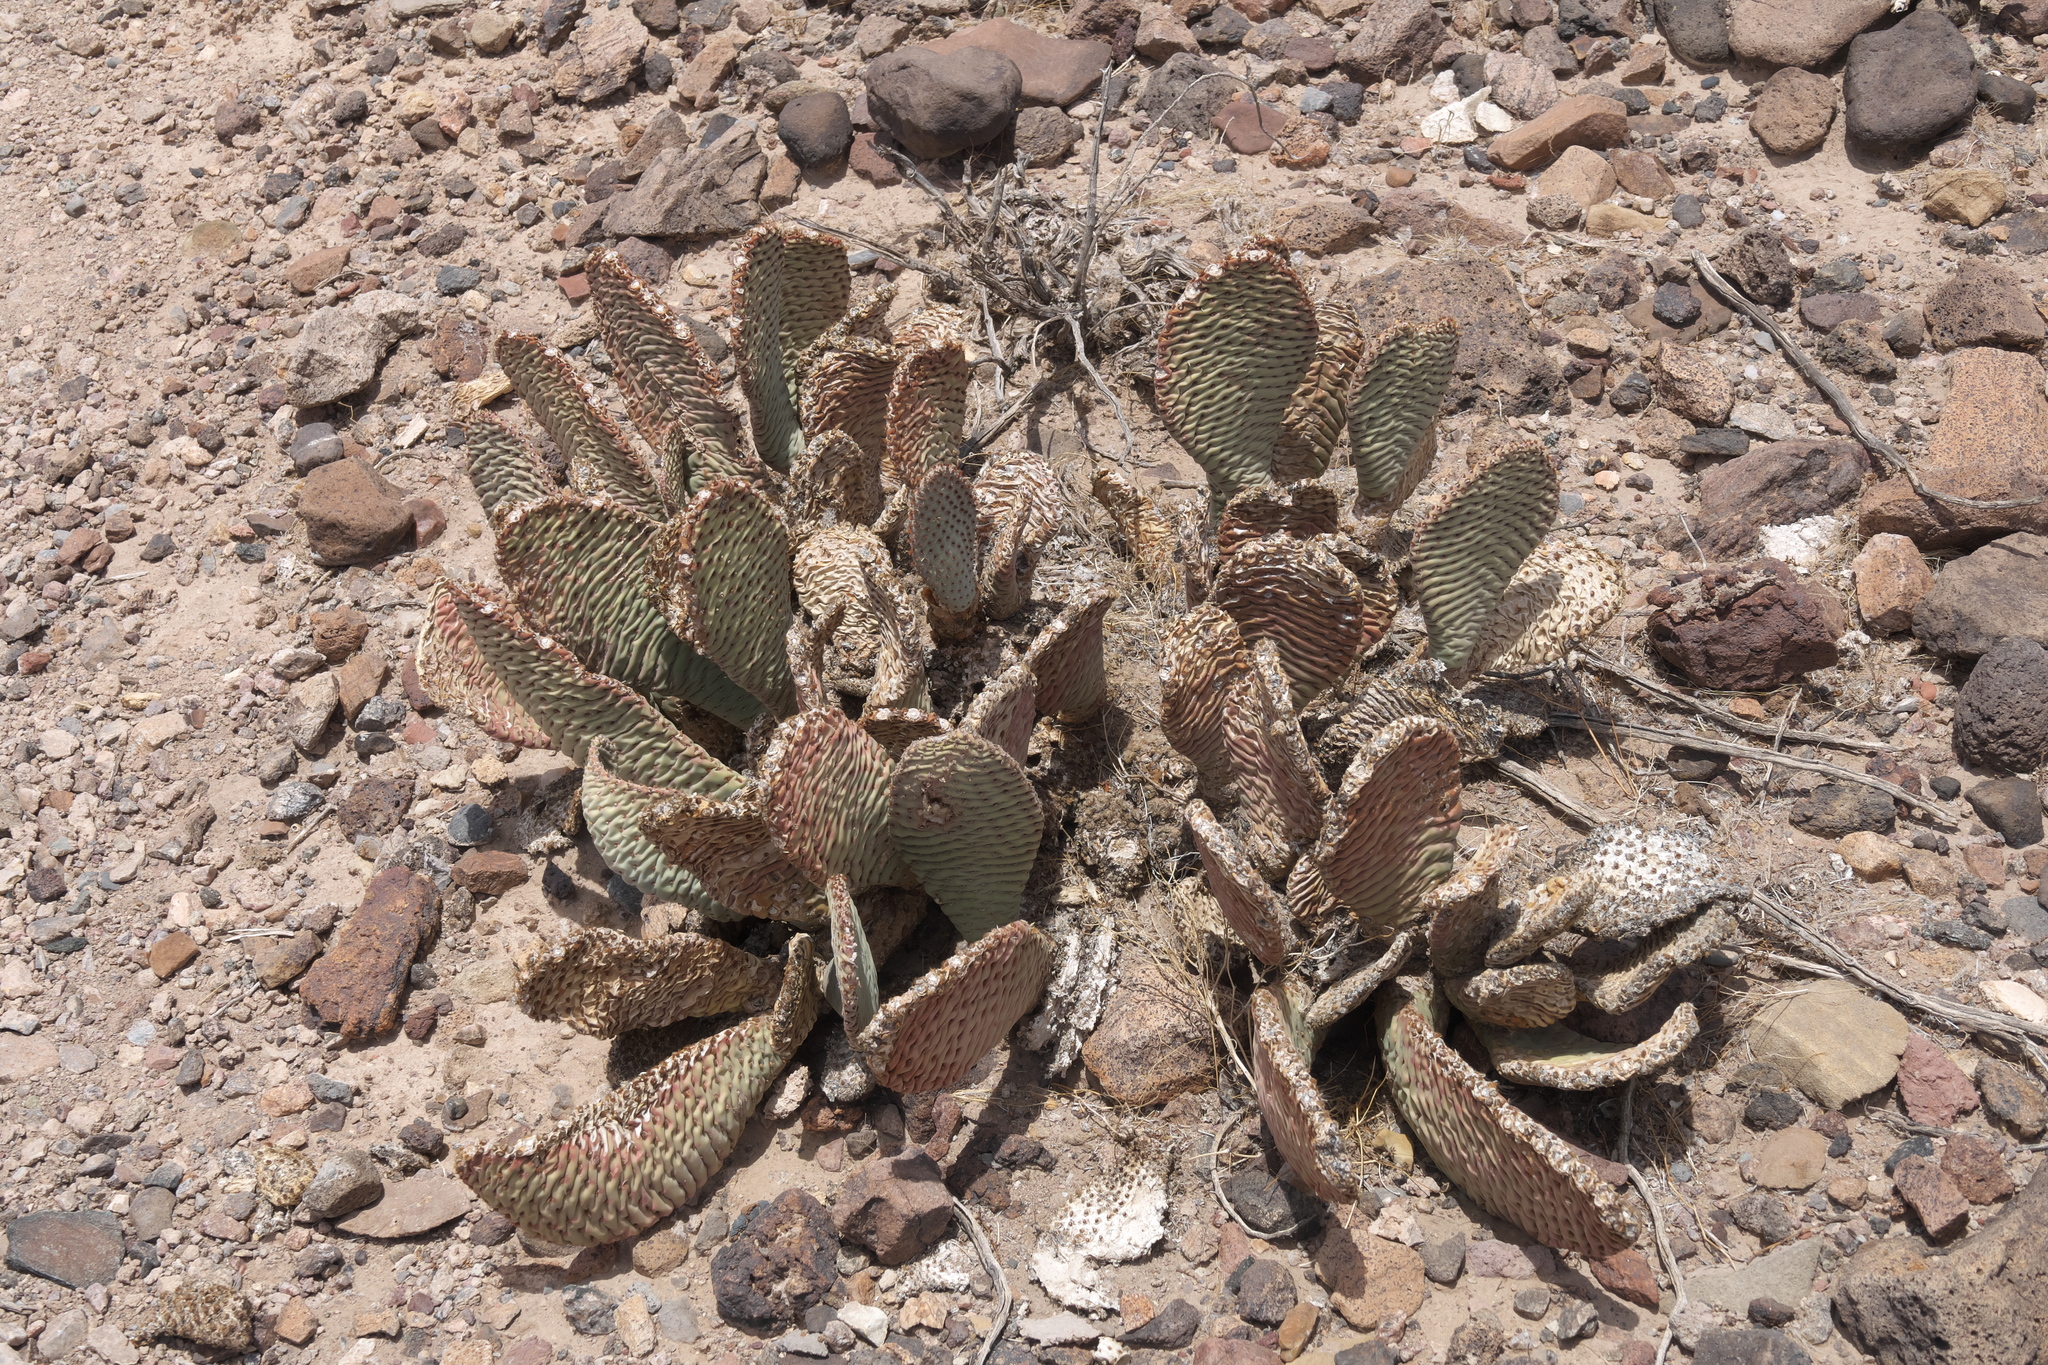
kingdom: Plantae
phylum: Tracheophyta
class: Magnoliopsida
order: Caryophyllales
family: Cactaceae
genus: Opuntia
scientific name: Opuntia basilaris
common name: Beavertail prickly-pear
